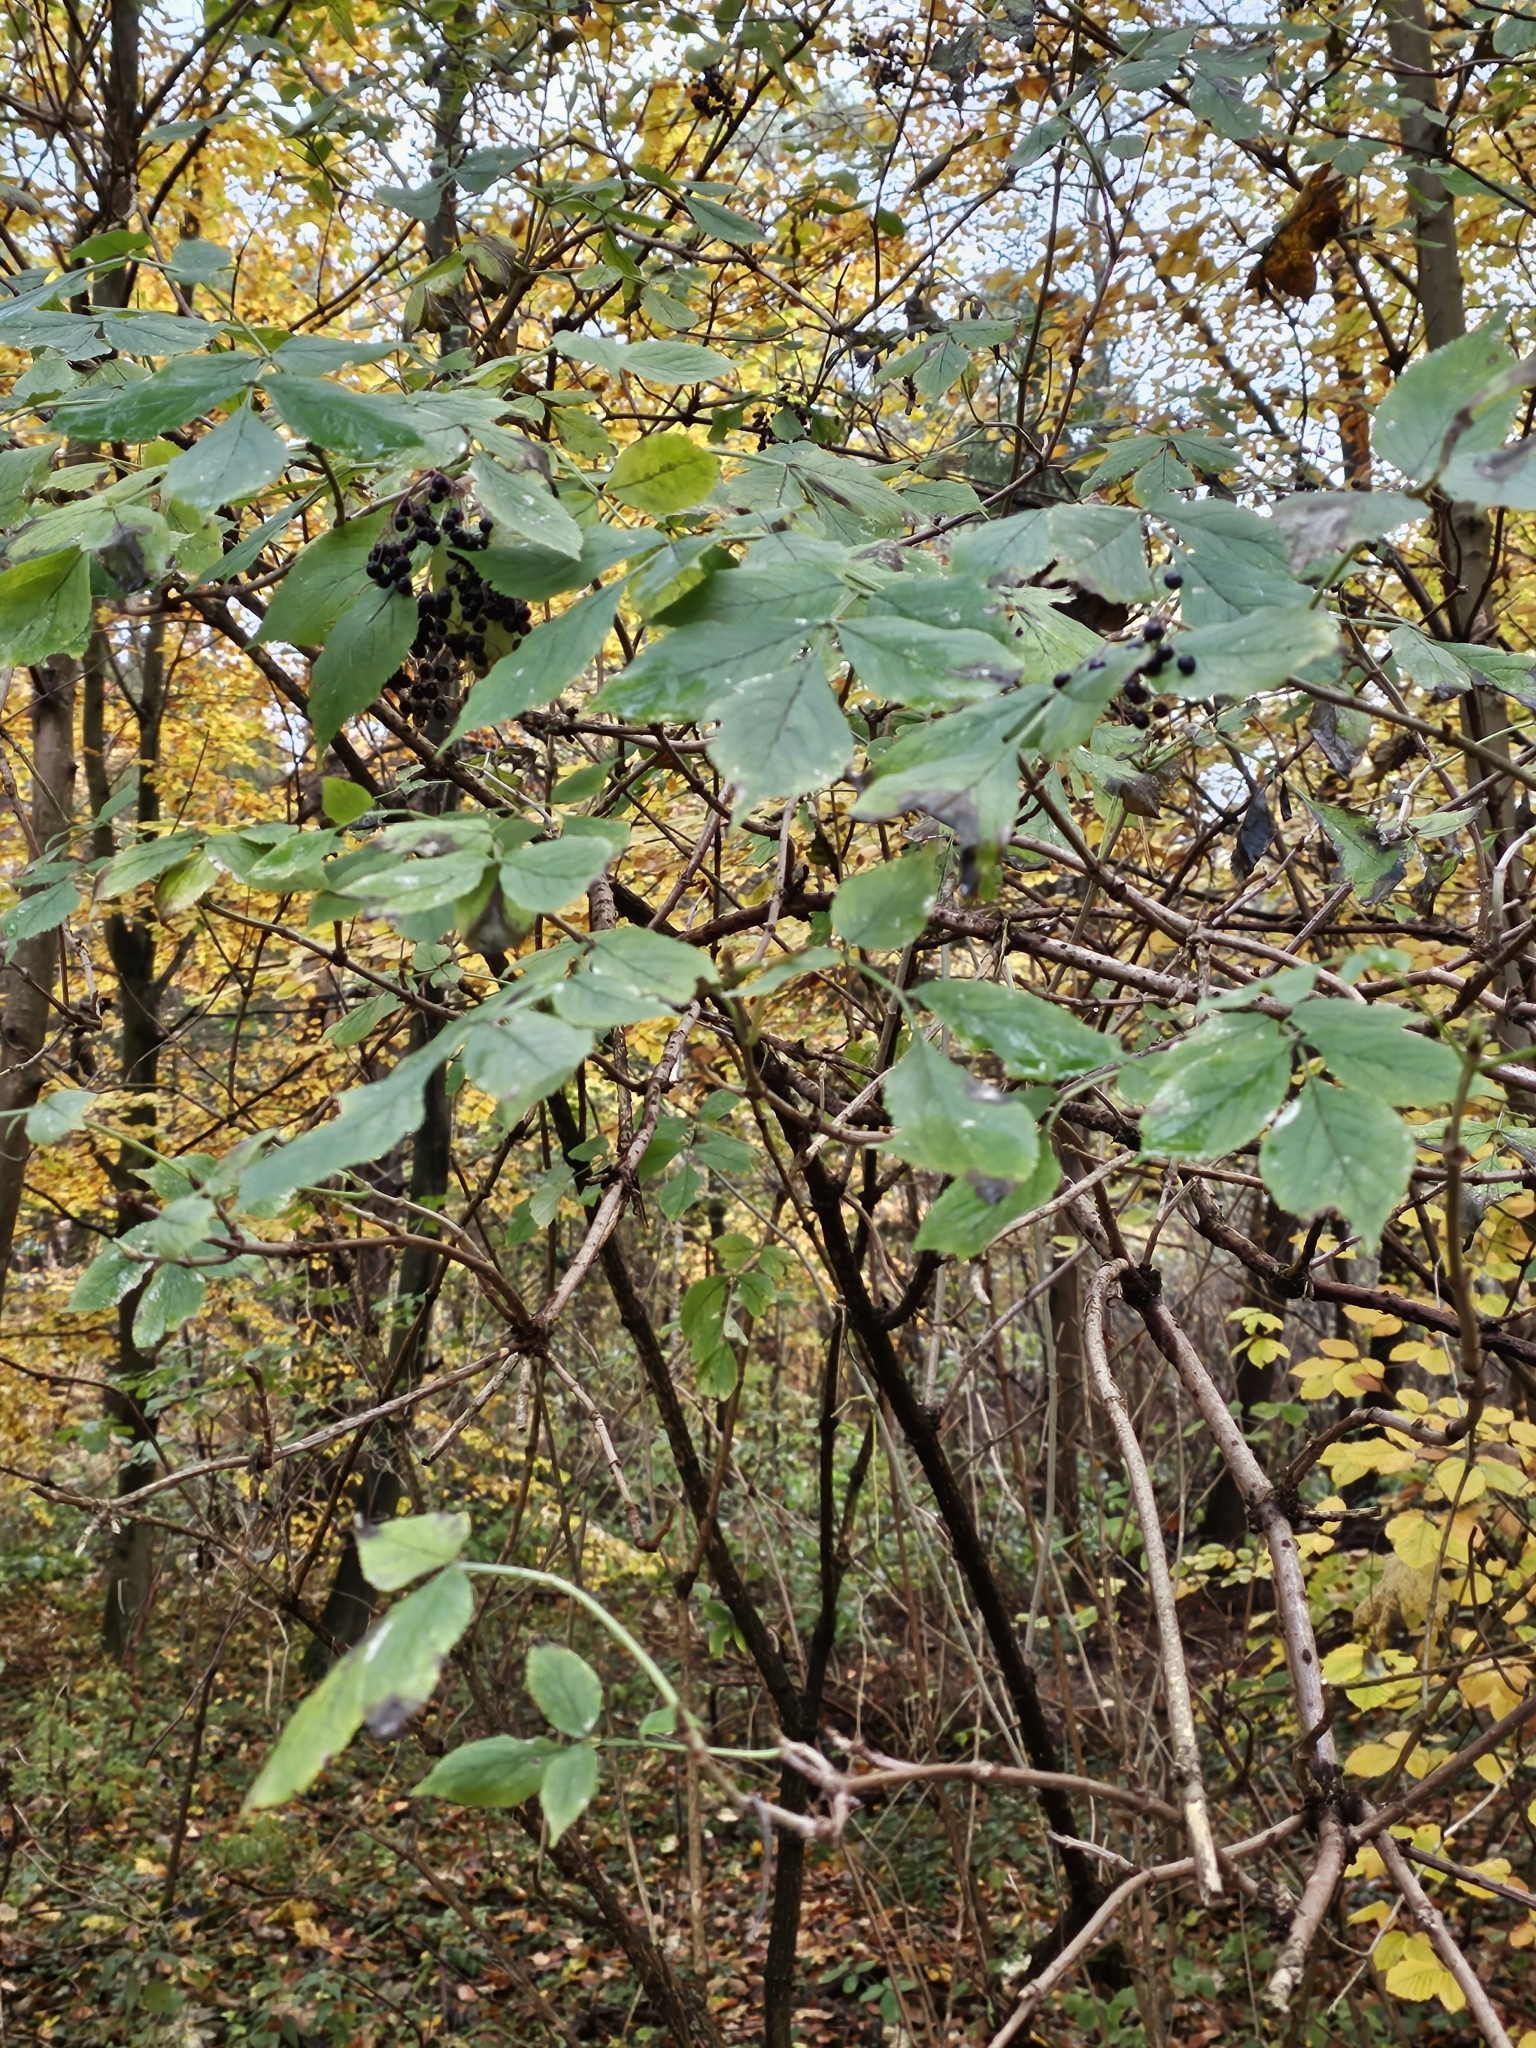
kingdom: Plantae
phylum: Tracheophyta
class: Magnoliopsida
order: Dipsacales
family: Viburnaceae
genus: Sambucus
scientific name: Sambucus nigra
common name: Elder
